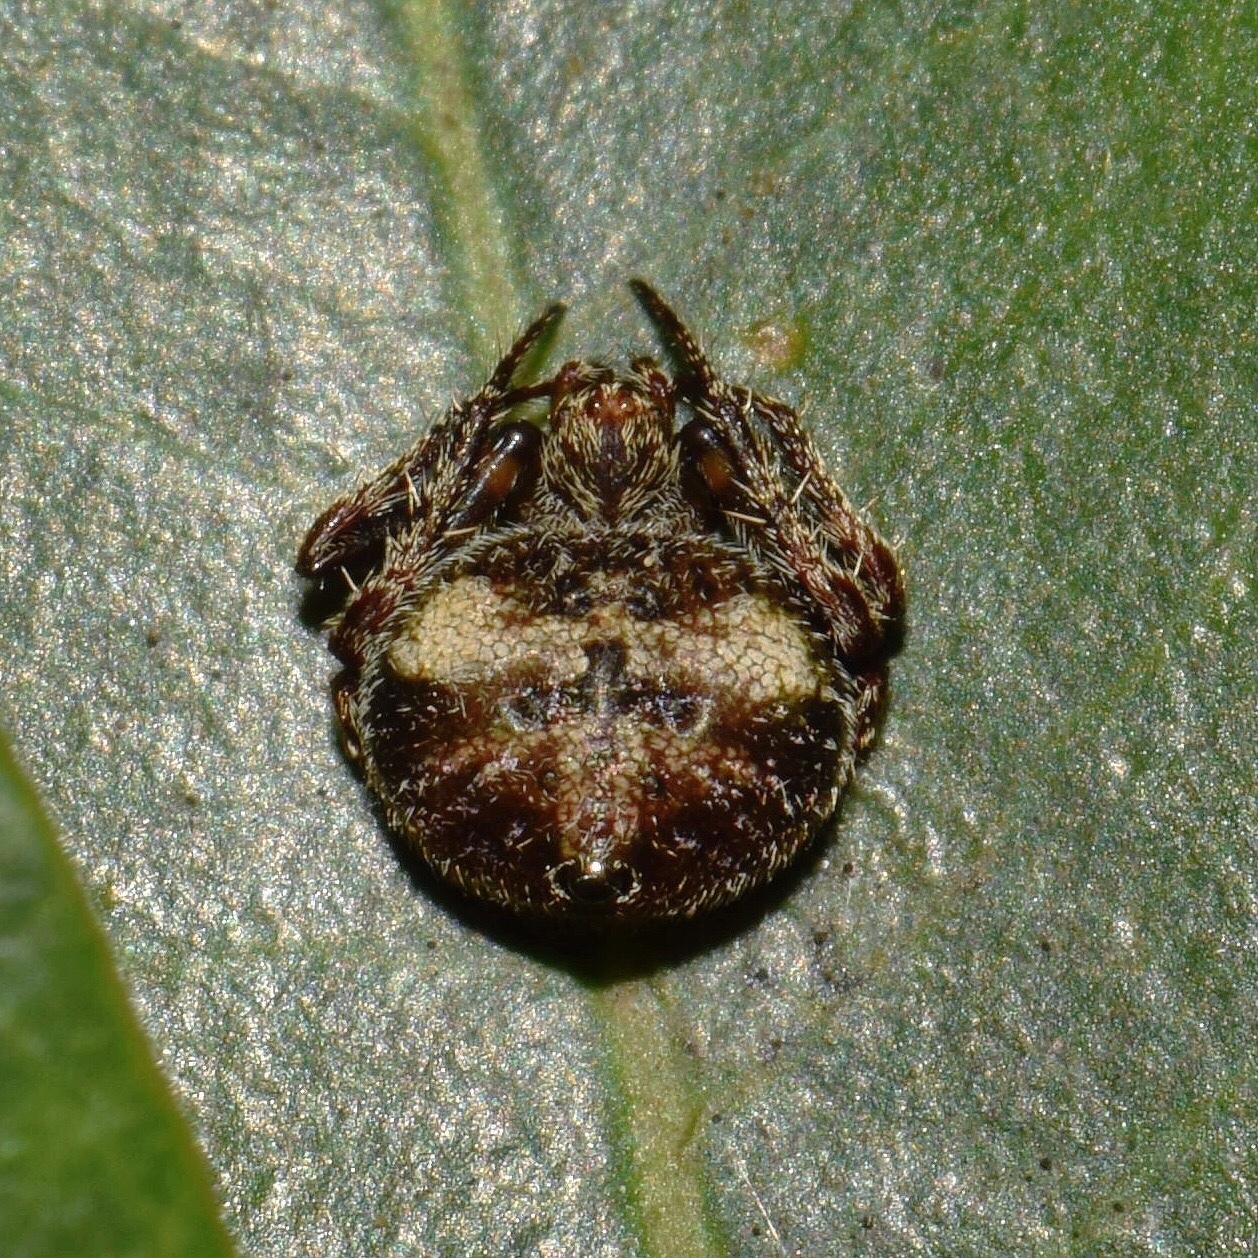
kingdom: Animalia
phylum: Arthropoda
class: Arachnida
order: Araneae
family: Araneidae
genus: Eriovixia
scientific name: Eriovixia excelsa
